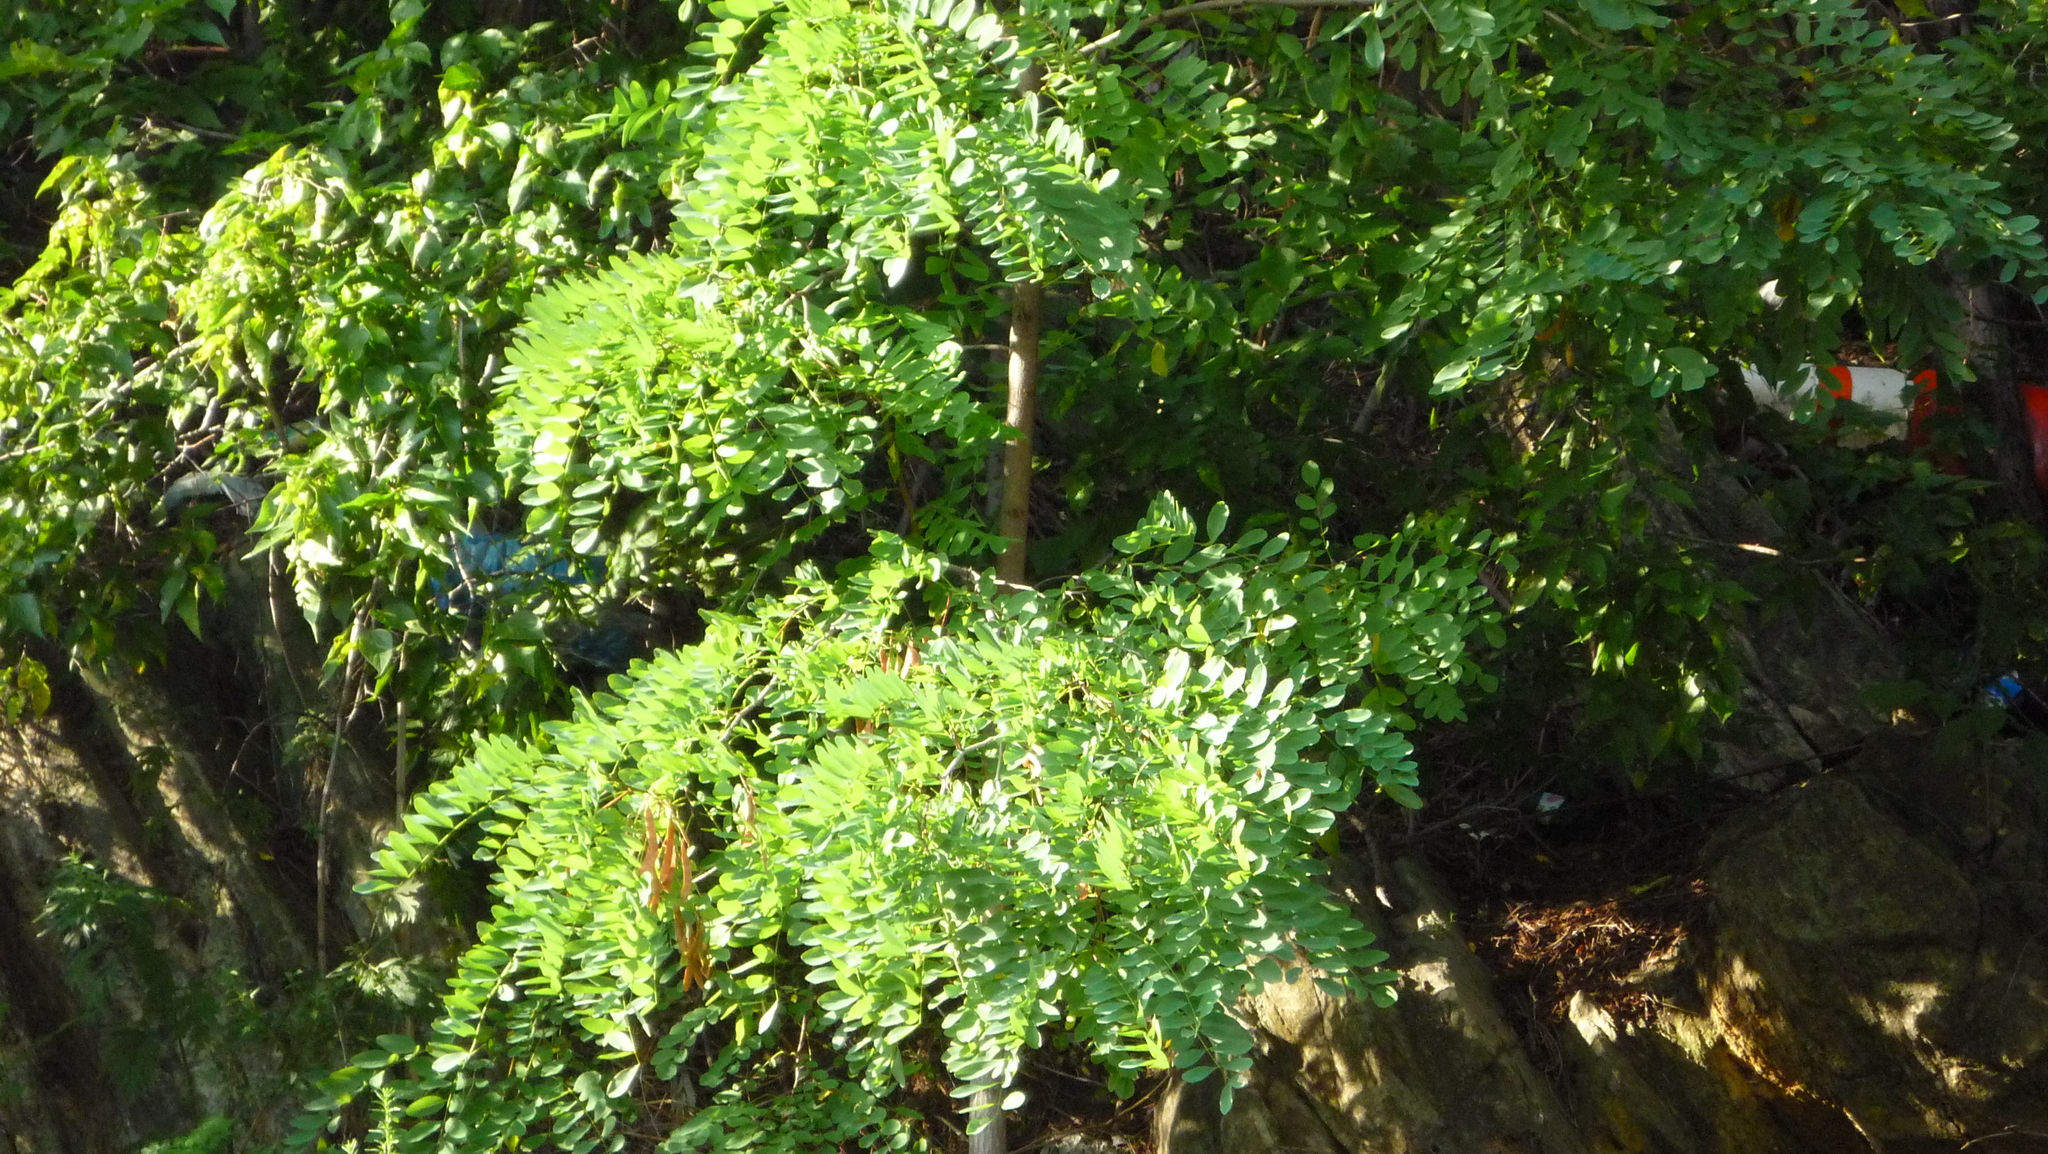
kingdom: Plantae
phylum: Tracheophyta
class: Magnoliopsida
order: Fabales
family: Fabaceae
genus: Robinia
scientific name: Robinia pseudoacacia
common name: Black locust
